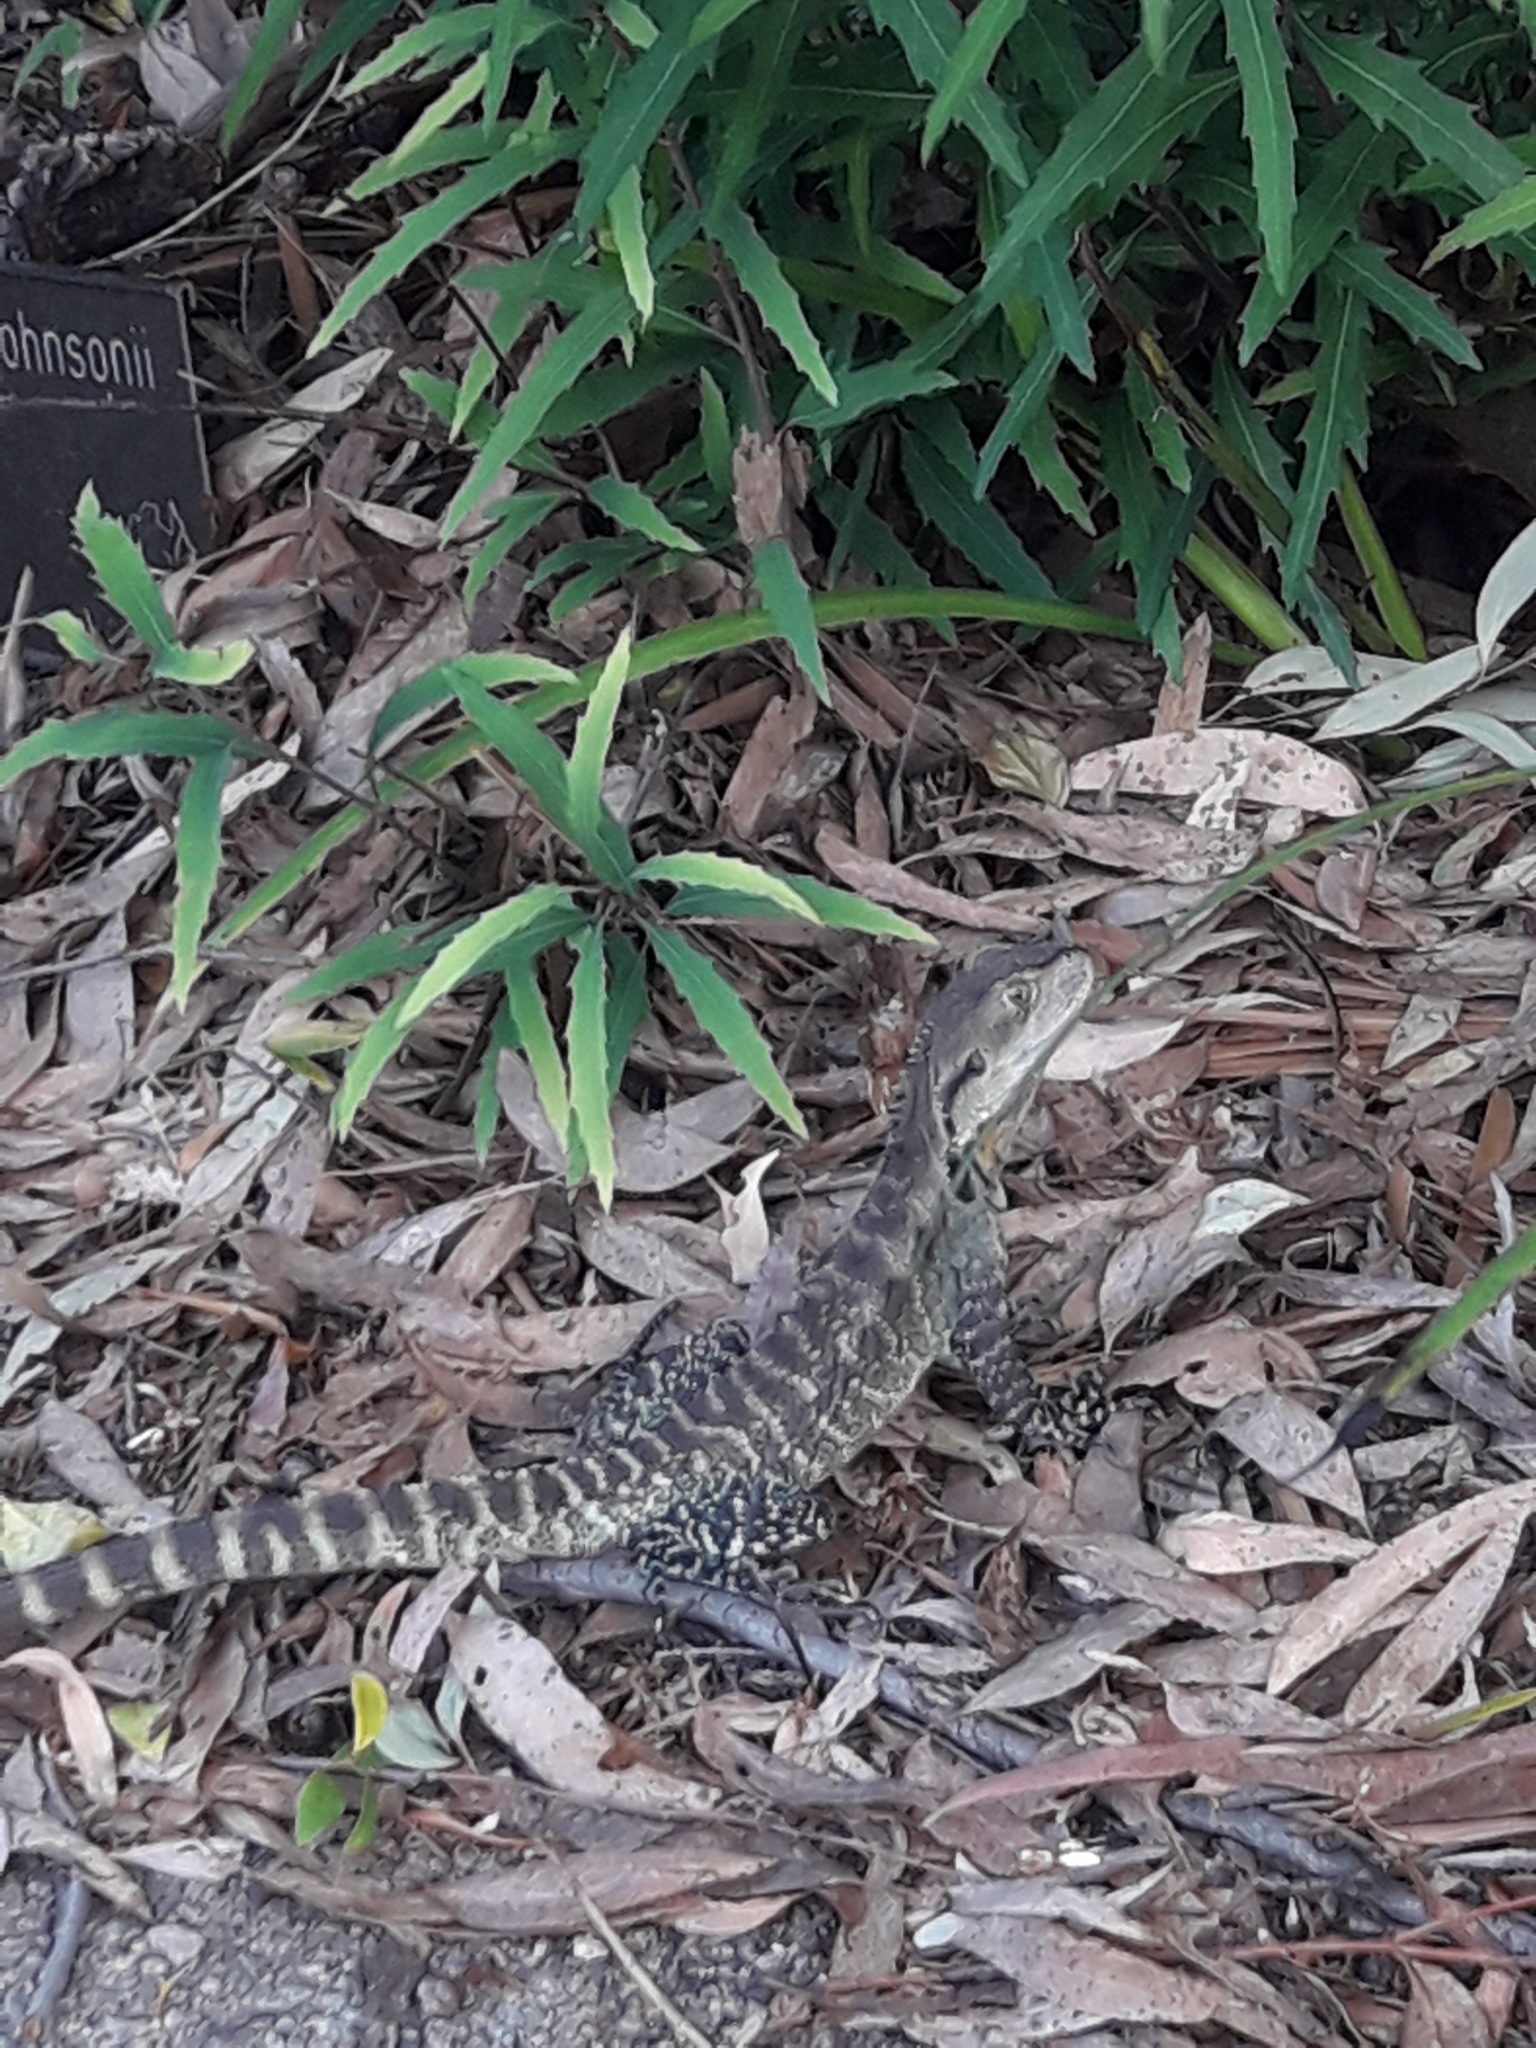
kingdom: Animalia
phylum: Chordata
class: Squamata
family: Agamidae
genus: Intellagama
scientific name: Intellagama lesueurii
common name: Eastern water dragon
